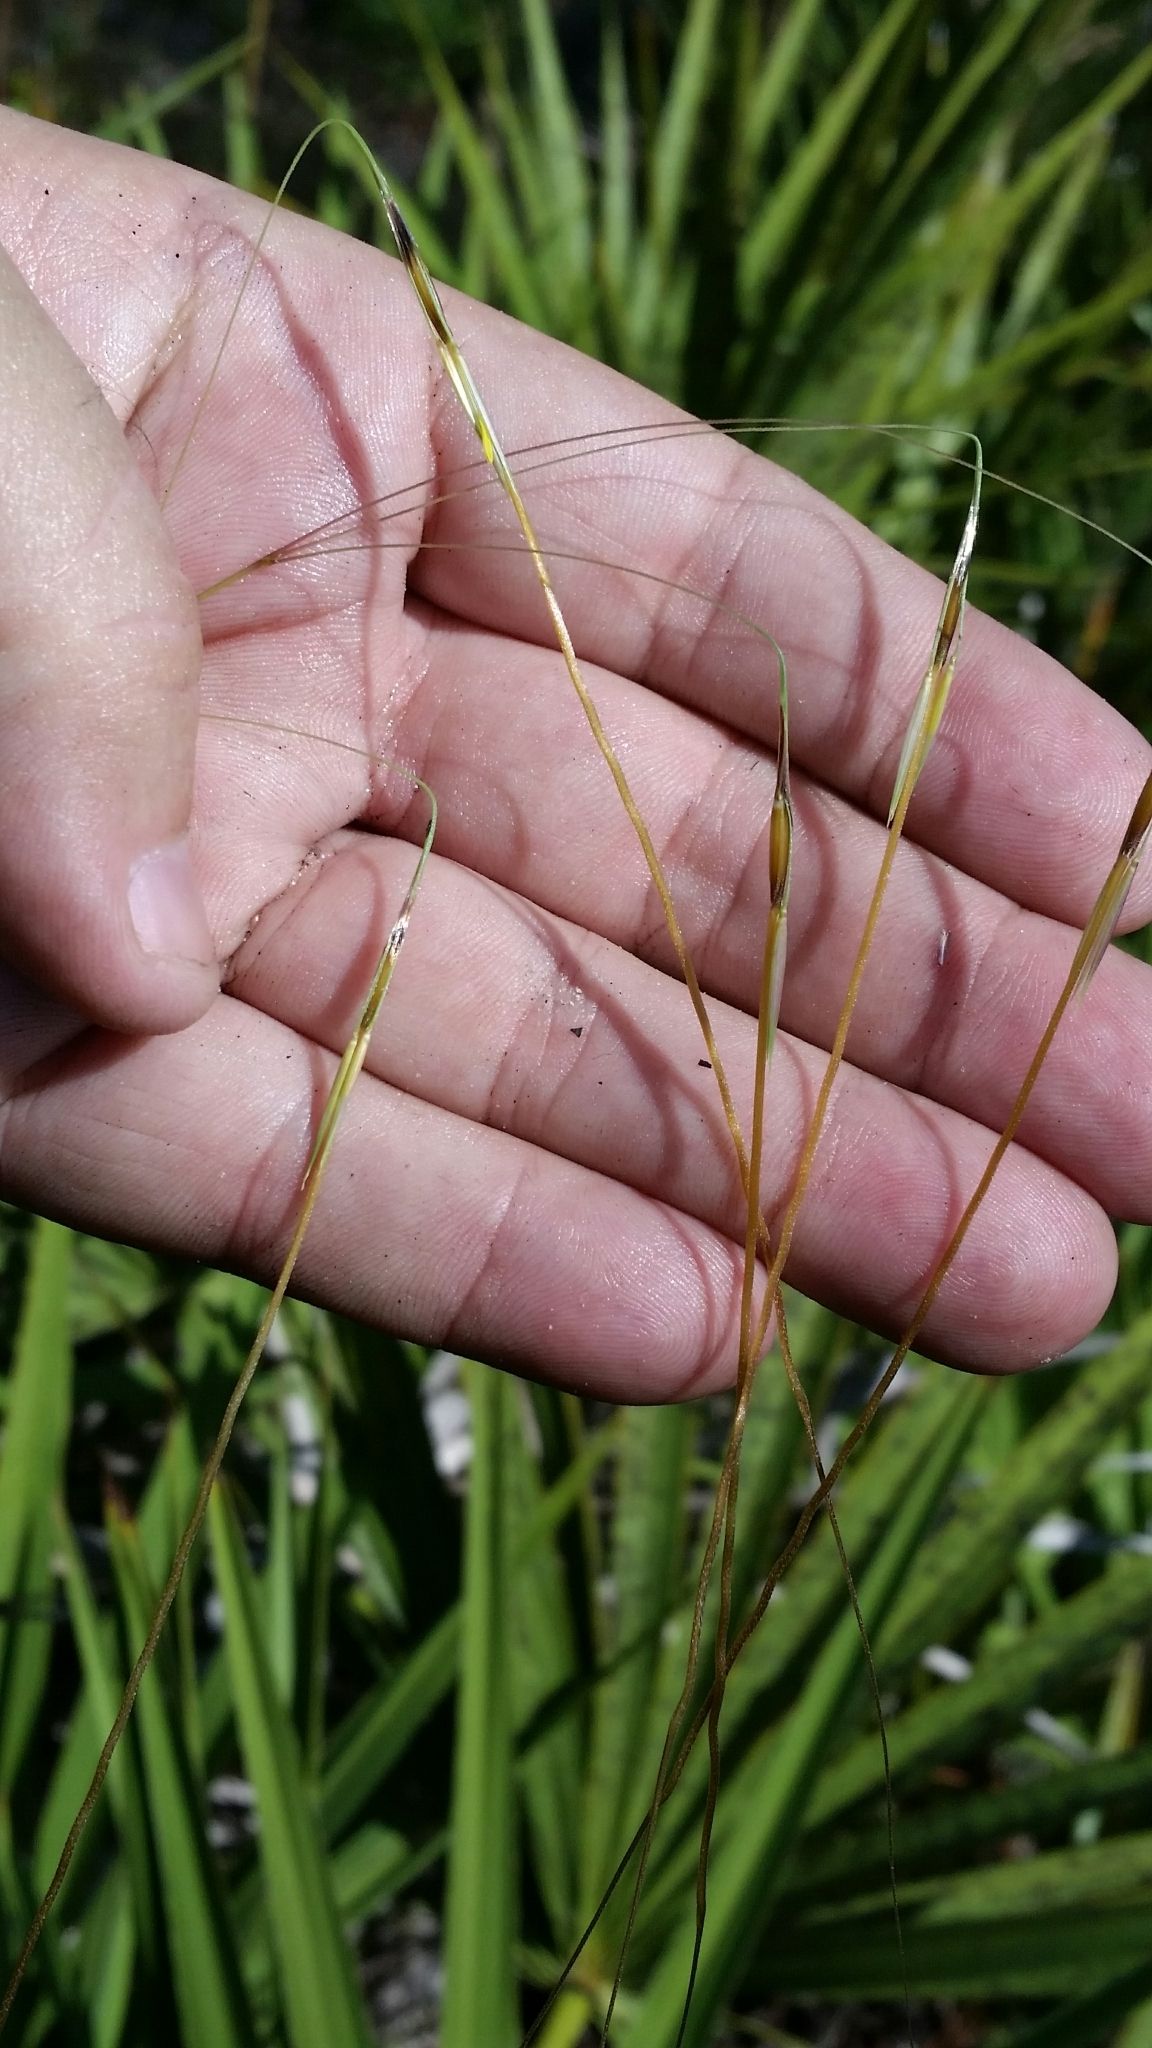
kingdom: Plantae
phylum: Tracheophyta
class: Liliopsida
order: Poales
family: Poaceae
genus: Chrysopogon
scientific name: Chrysopogon pauciflorus
